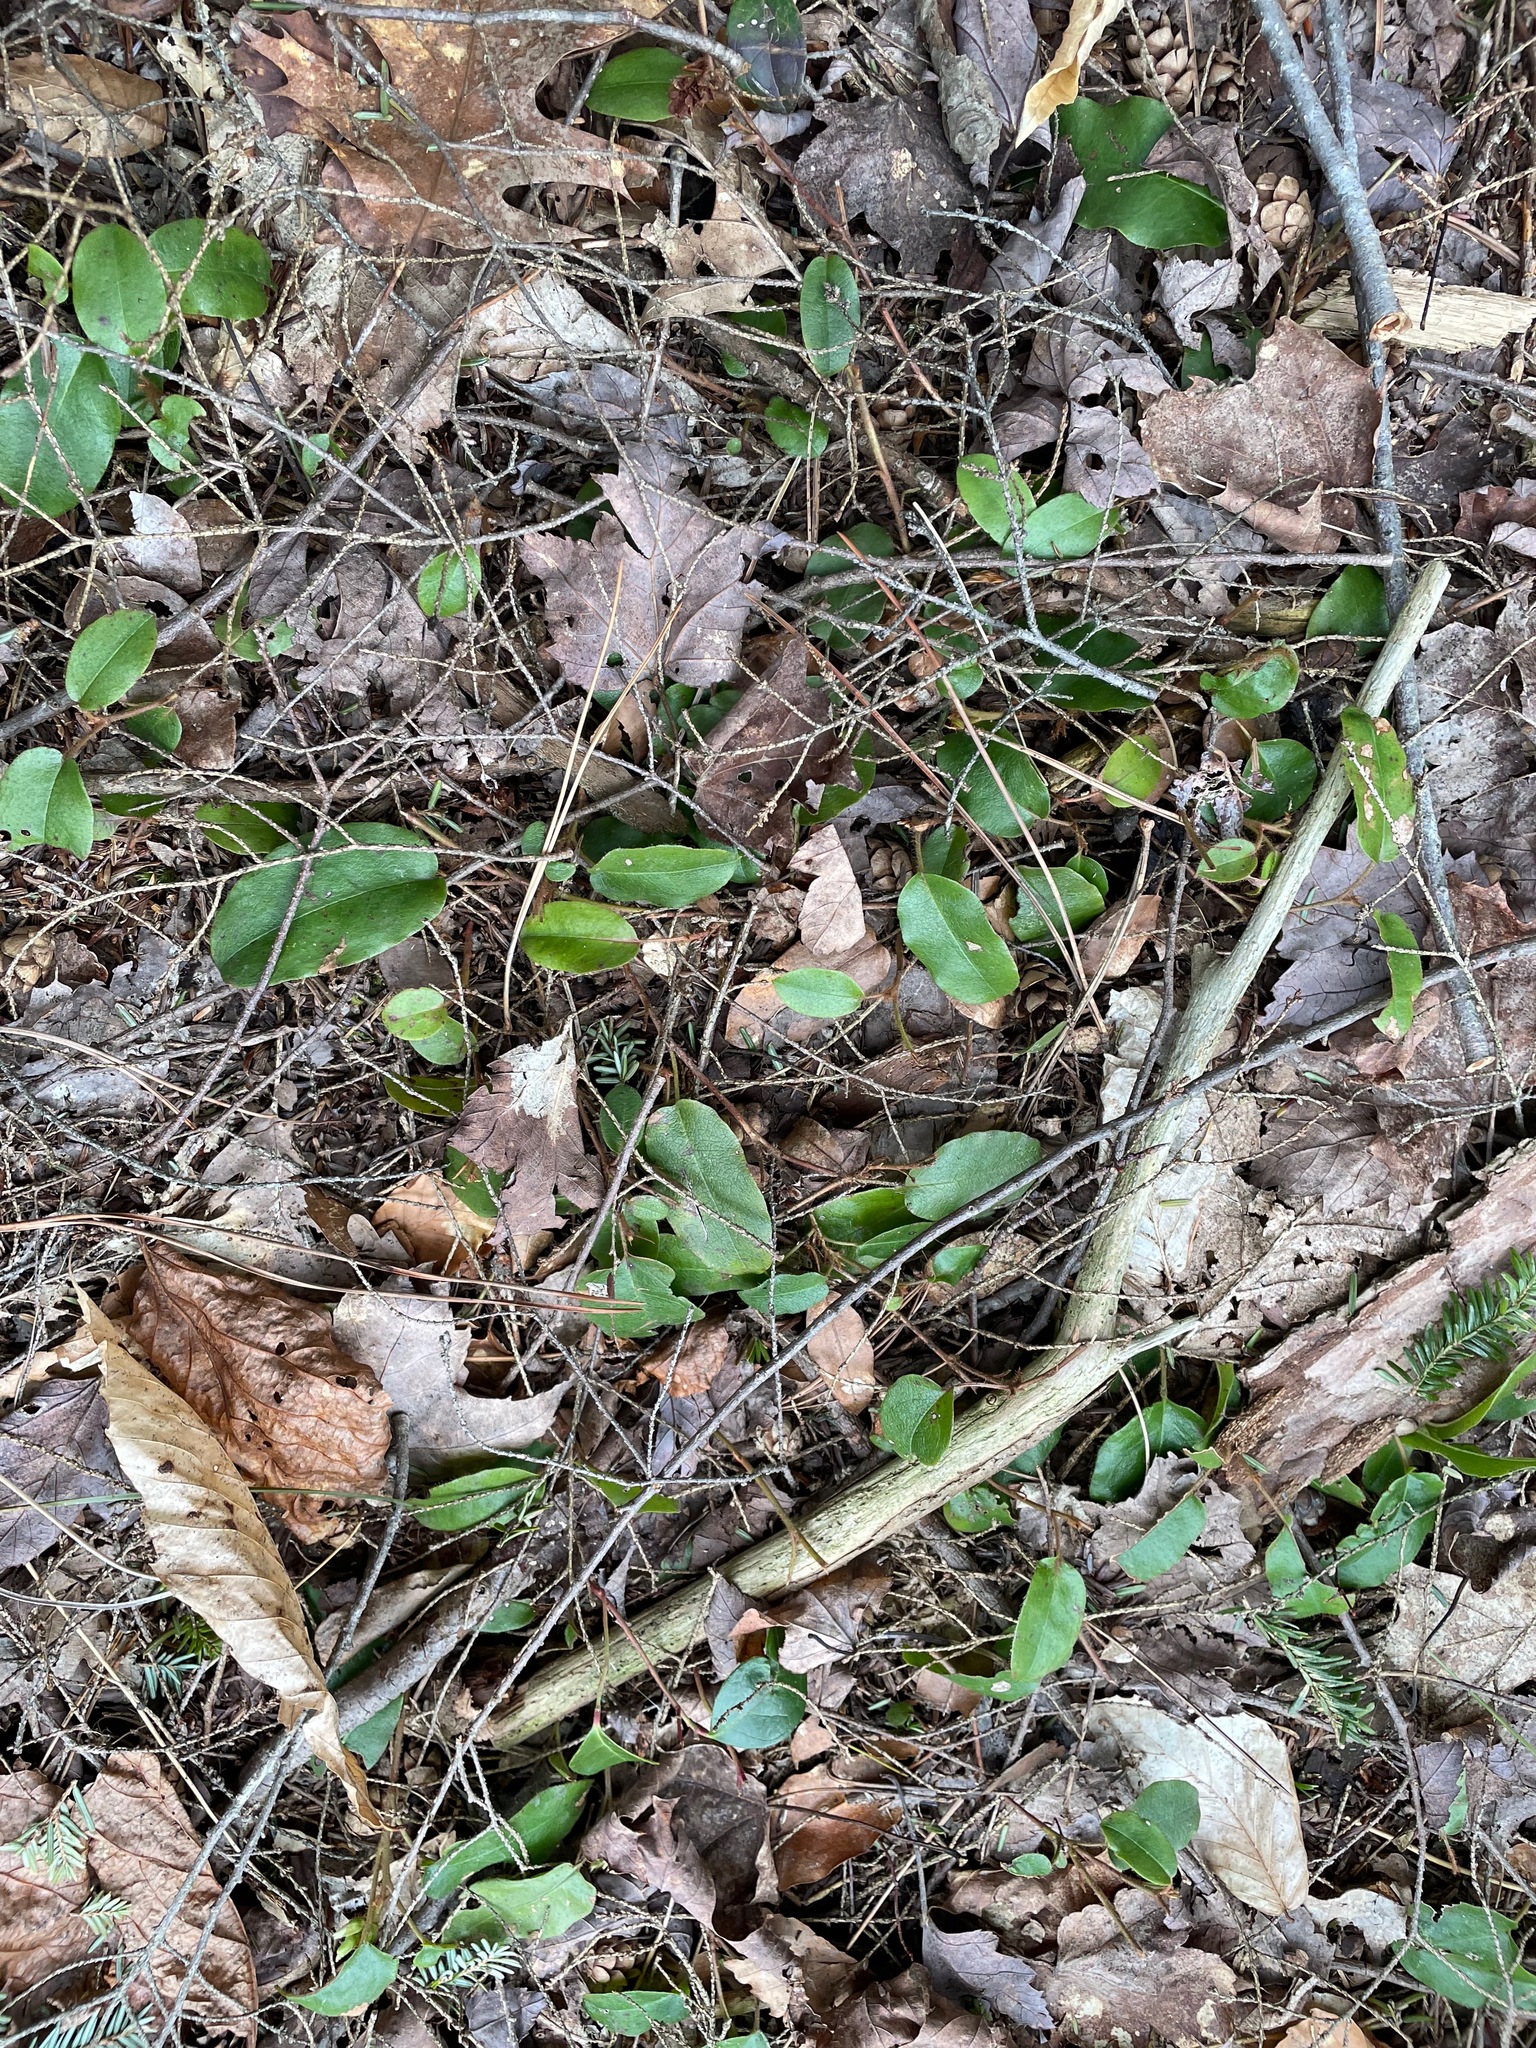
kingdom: Plantae
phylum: Tracheophyta
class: Magnoliopsida
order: Ericales
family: Ericaceae
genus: Epigaea
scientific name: Epigaea repens
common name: Gravelroot
